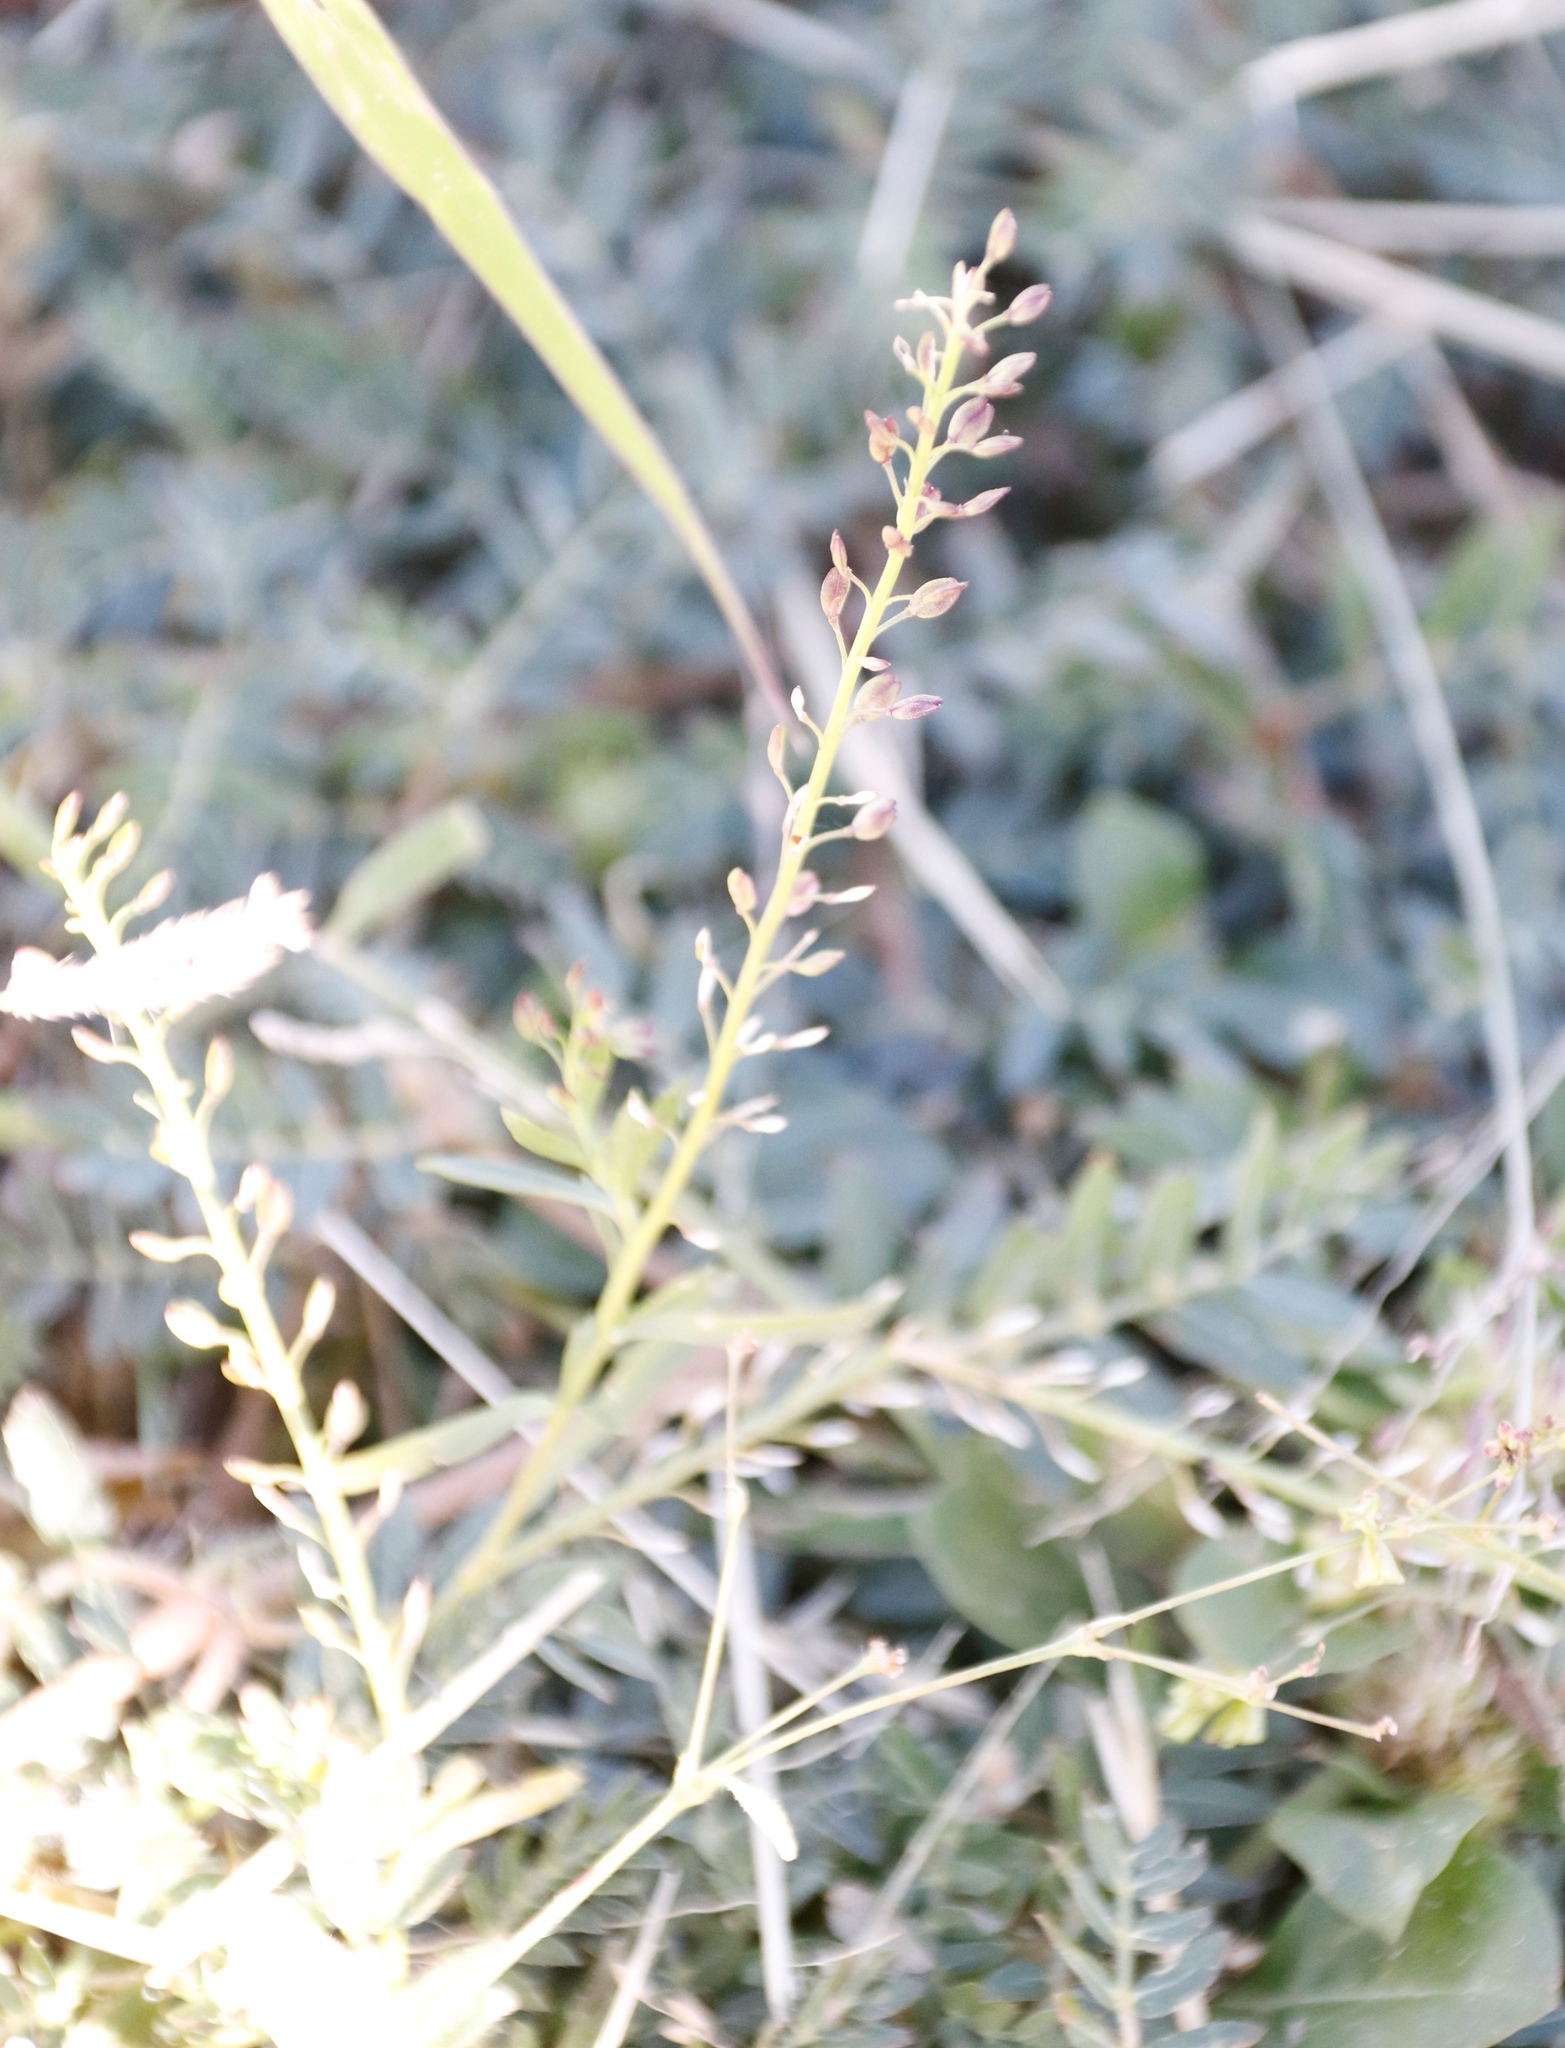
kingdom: Plantae
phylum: Tracheophyta
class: Magnoliopsida
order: Brassicales
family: Brassicaceae
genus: Lepidium
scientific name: Lepidium africanum
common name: African pepperwort
